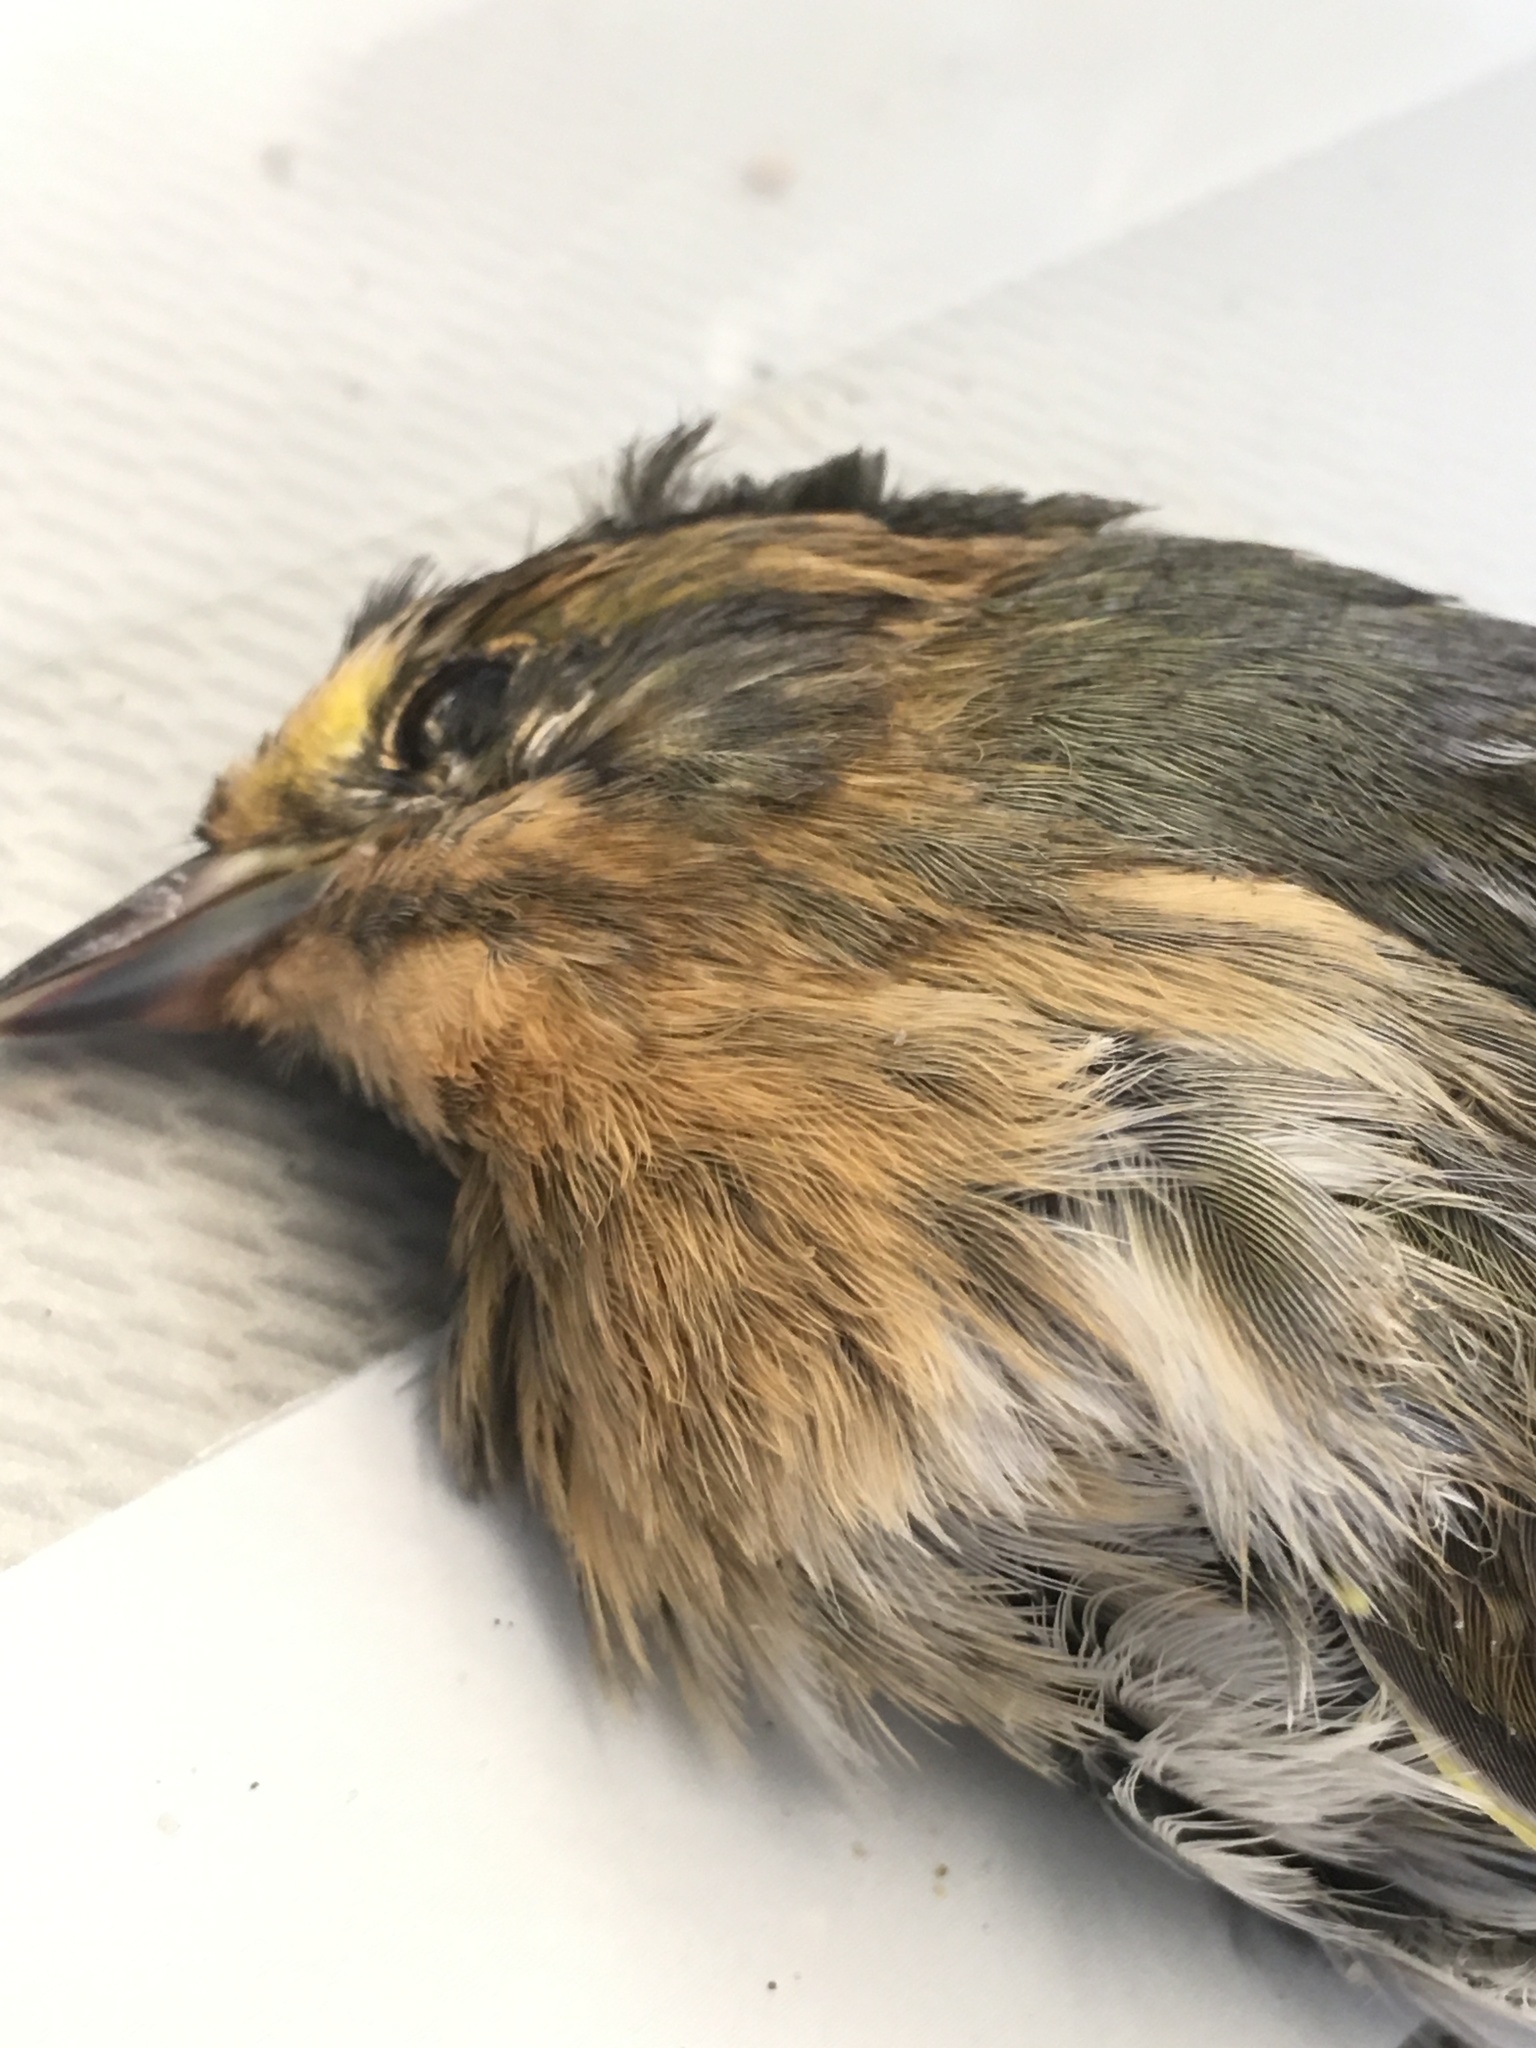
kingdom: Animalia
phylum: Chordata
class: Aves
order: Passeriformes
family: Passerellidae
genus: Ammospiza
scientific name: Ammospiza nelsoni
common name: Nelson's sparrow
